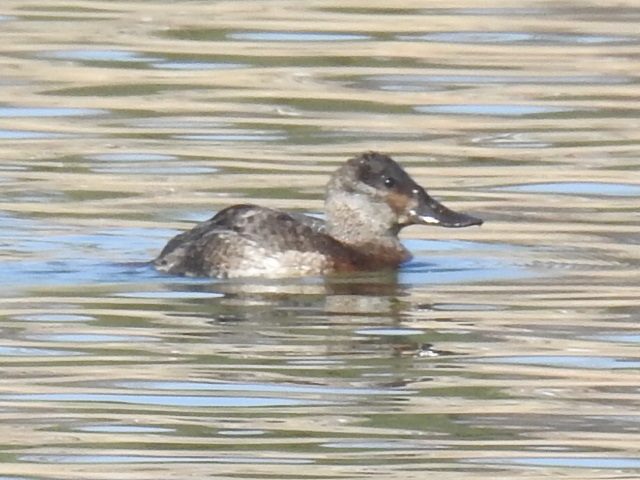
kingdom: Animalia
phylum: Chordata
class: Aves
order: Anseriformes
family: Anatidae
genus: Oxyura
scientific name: Oxyura jamaicensis
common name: Ruddy duck
